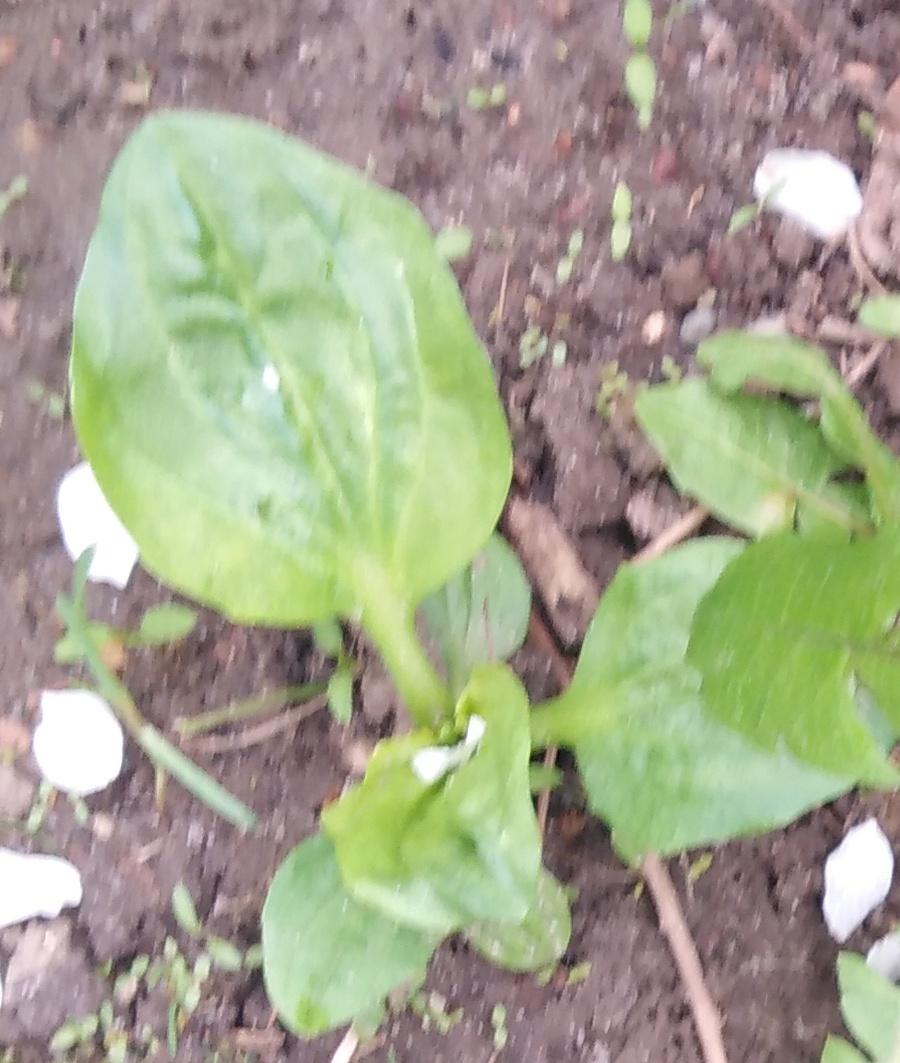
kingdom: Plantae
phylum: Tracheophyta
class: Magnoliopsida
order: Lamiales
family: Plantaginaceae
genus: Plantago
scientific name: Plantago major
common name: Common plantain
